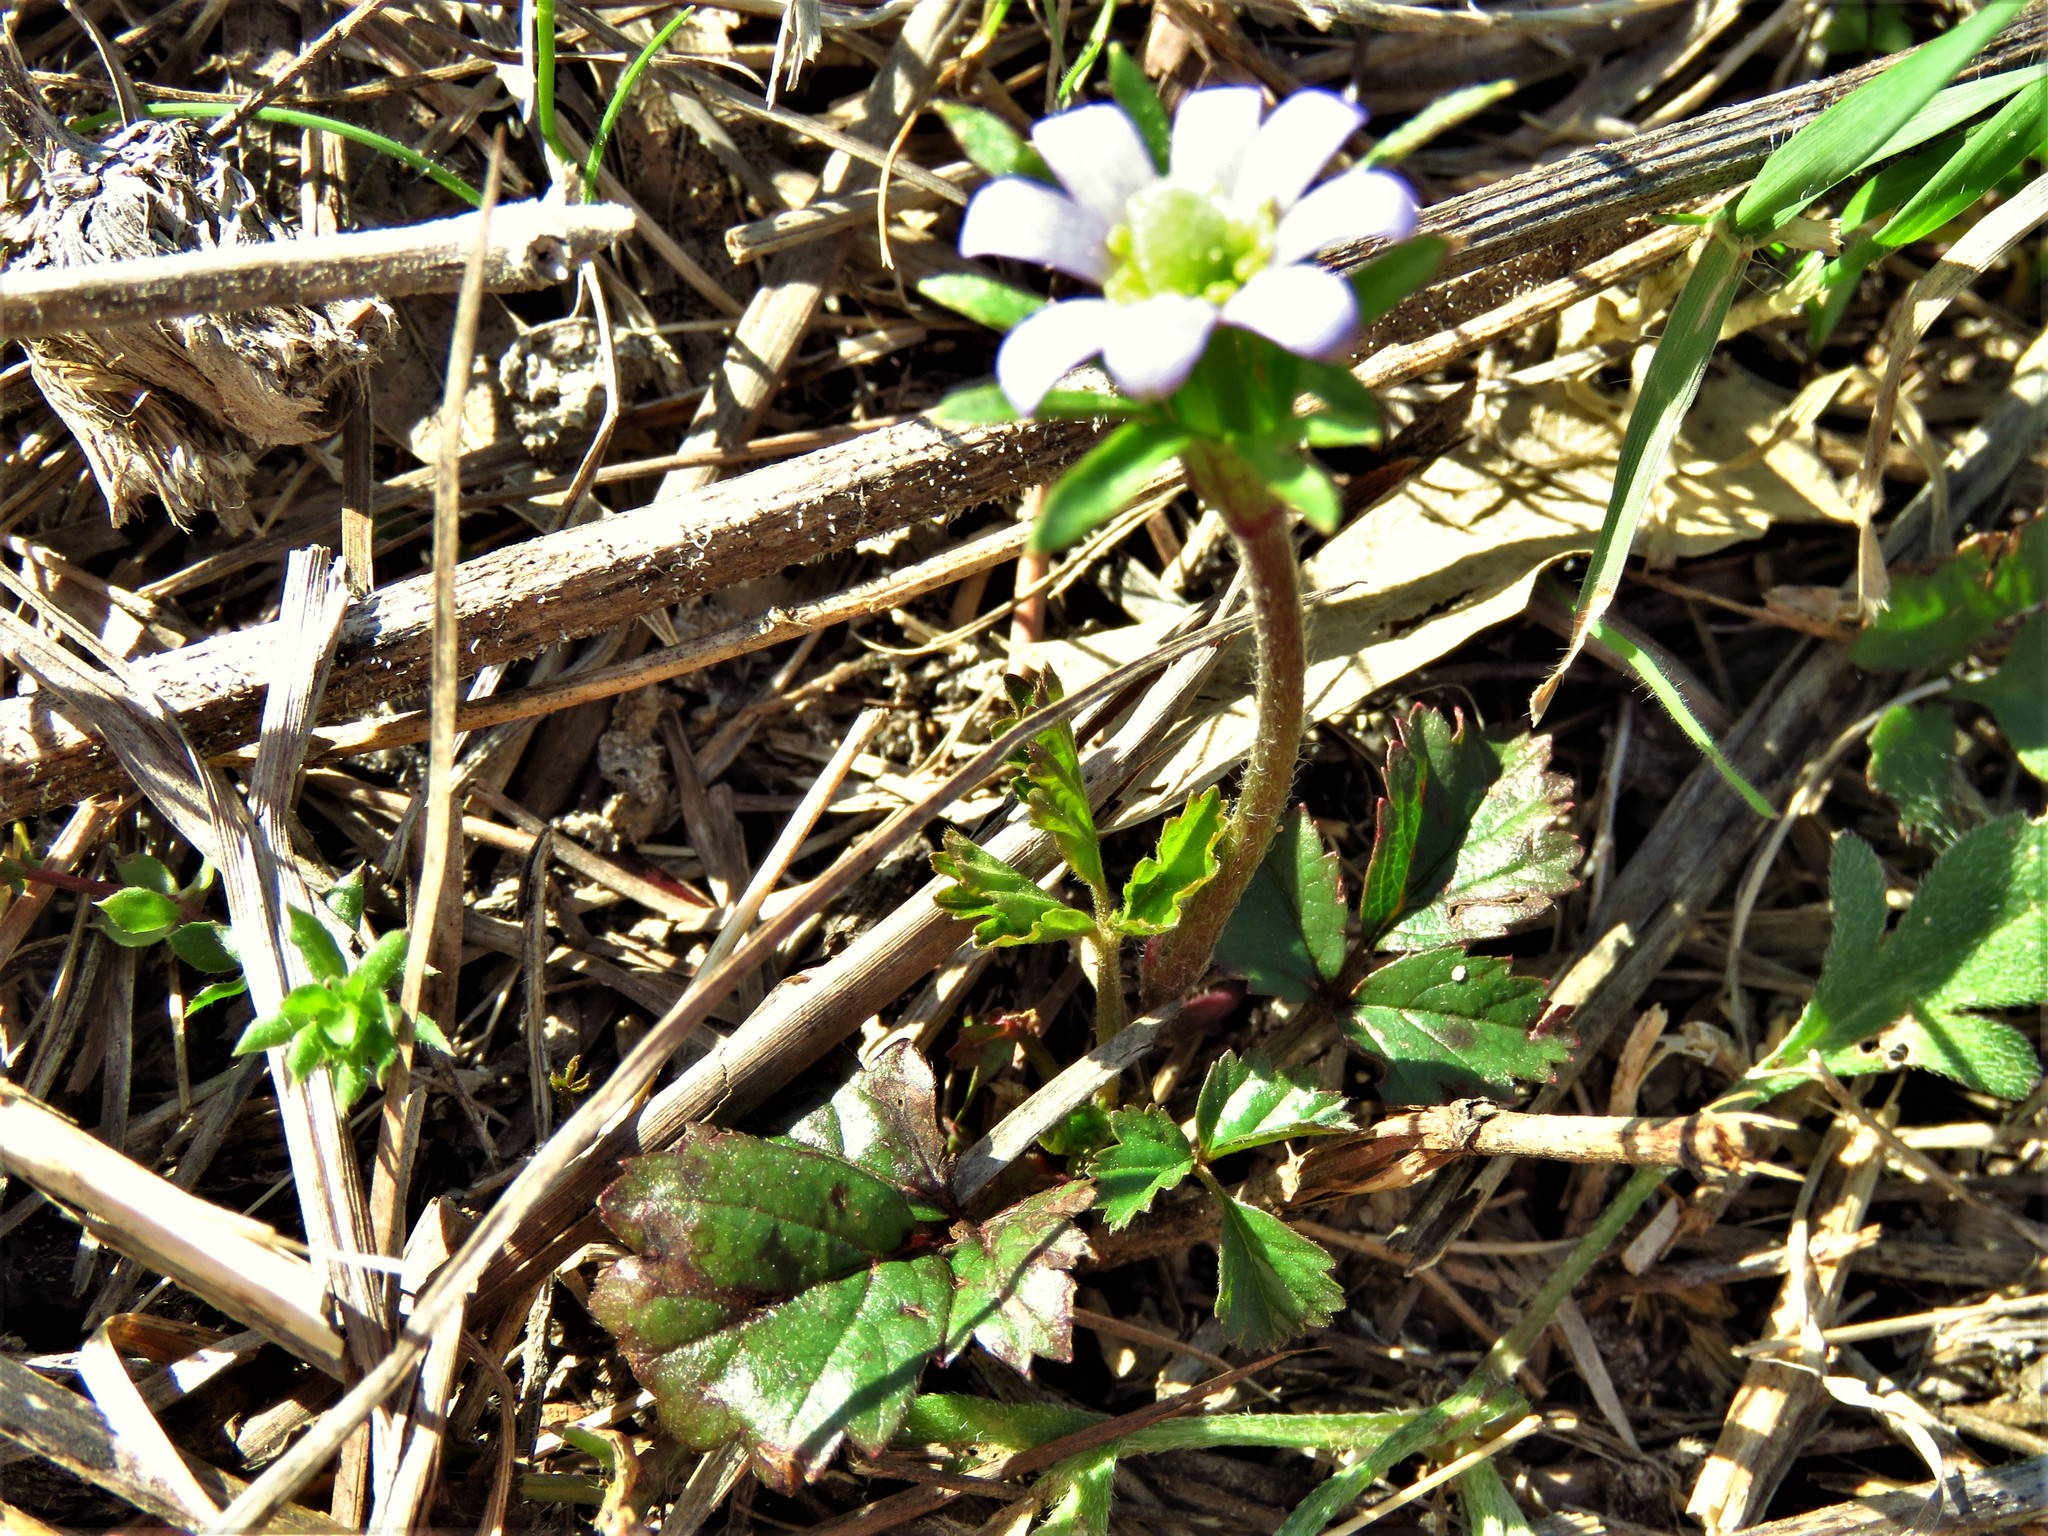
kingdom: Plantae
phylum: Tracheophyta
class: Magnoliopsida
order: Ranunculales
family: Ranunculaceae
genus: Anemone
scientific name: Anemone berlandieri
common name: Ten-petal anemone
